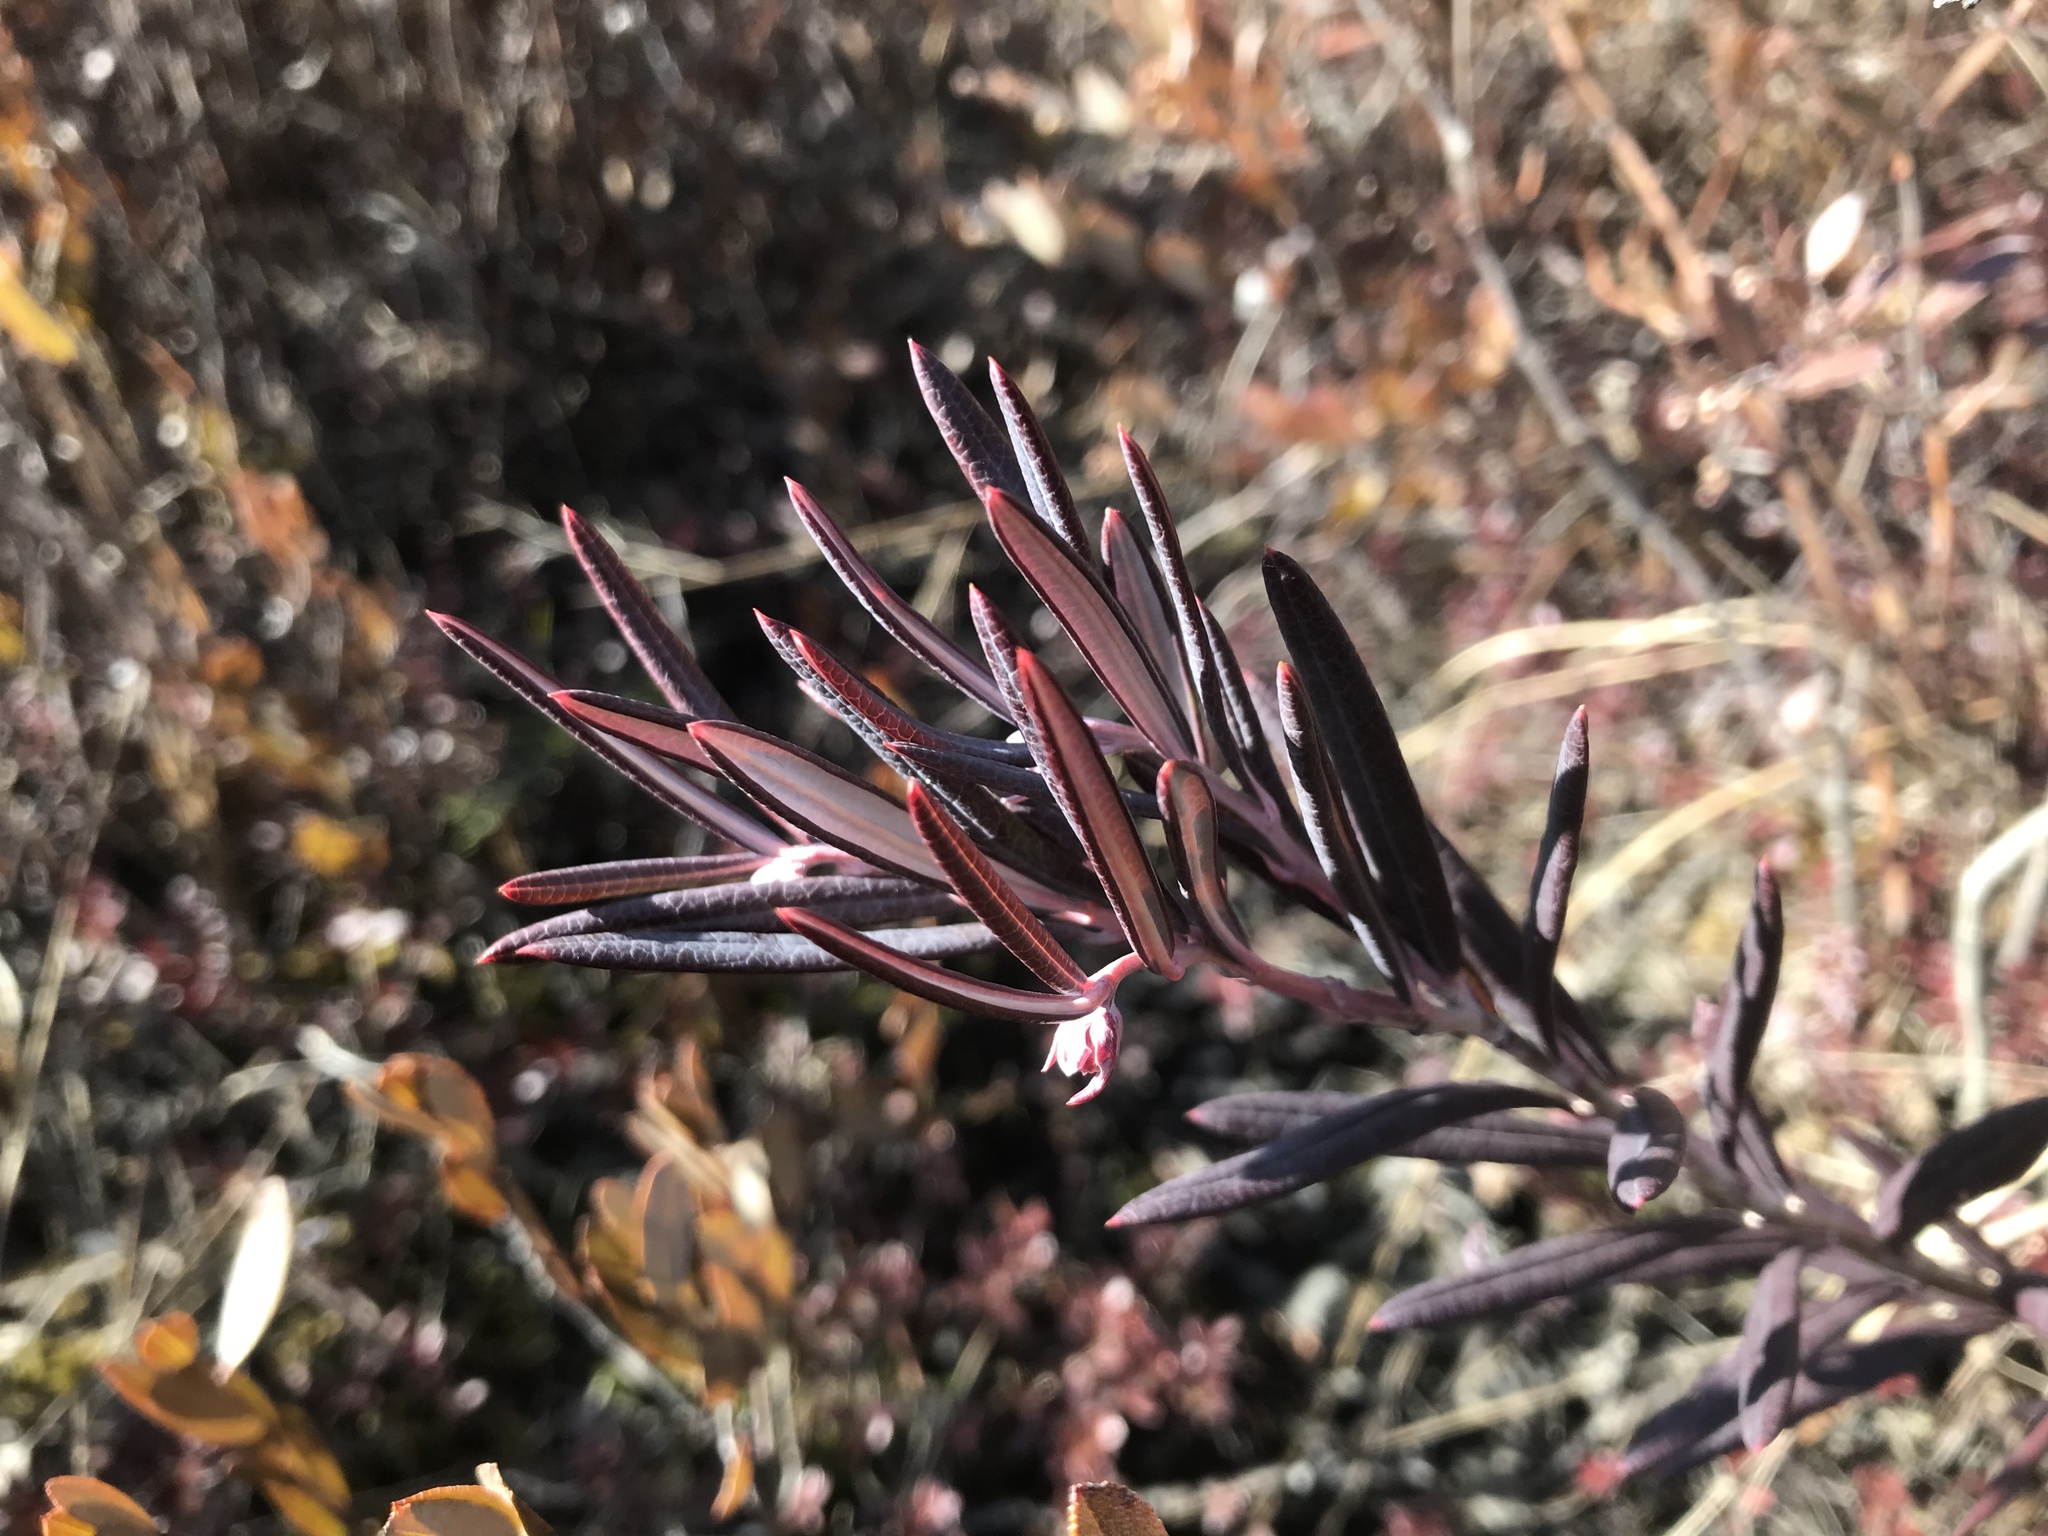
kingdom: Plantae
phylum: Tracheophyta
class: Magnoliopsida
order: Ericales
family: Ericaceae
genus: Andromeda
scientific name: Andromeda polifolia
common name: Bog-rosemary
